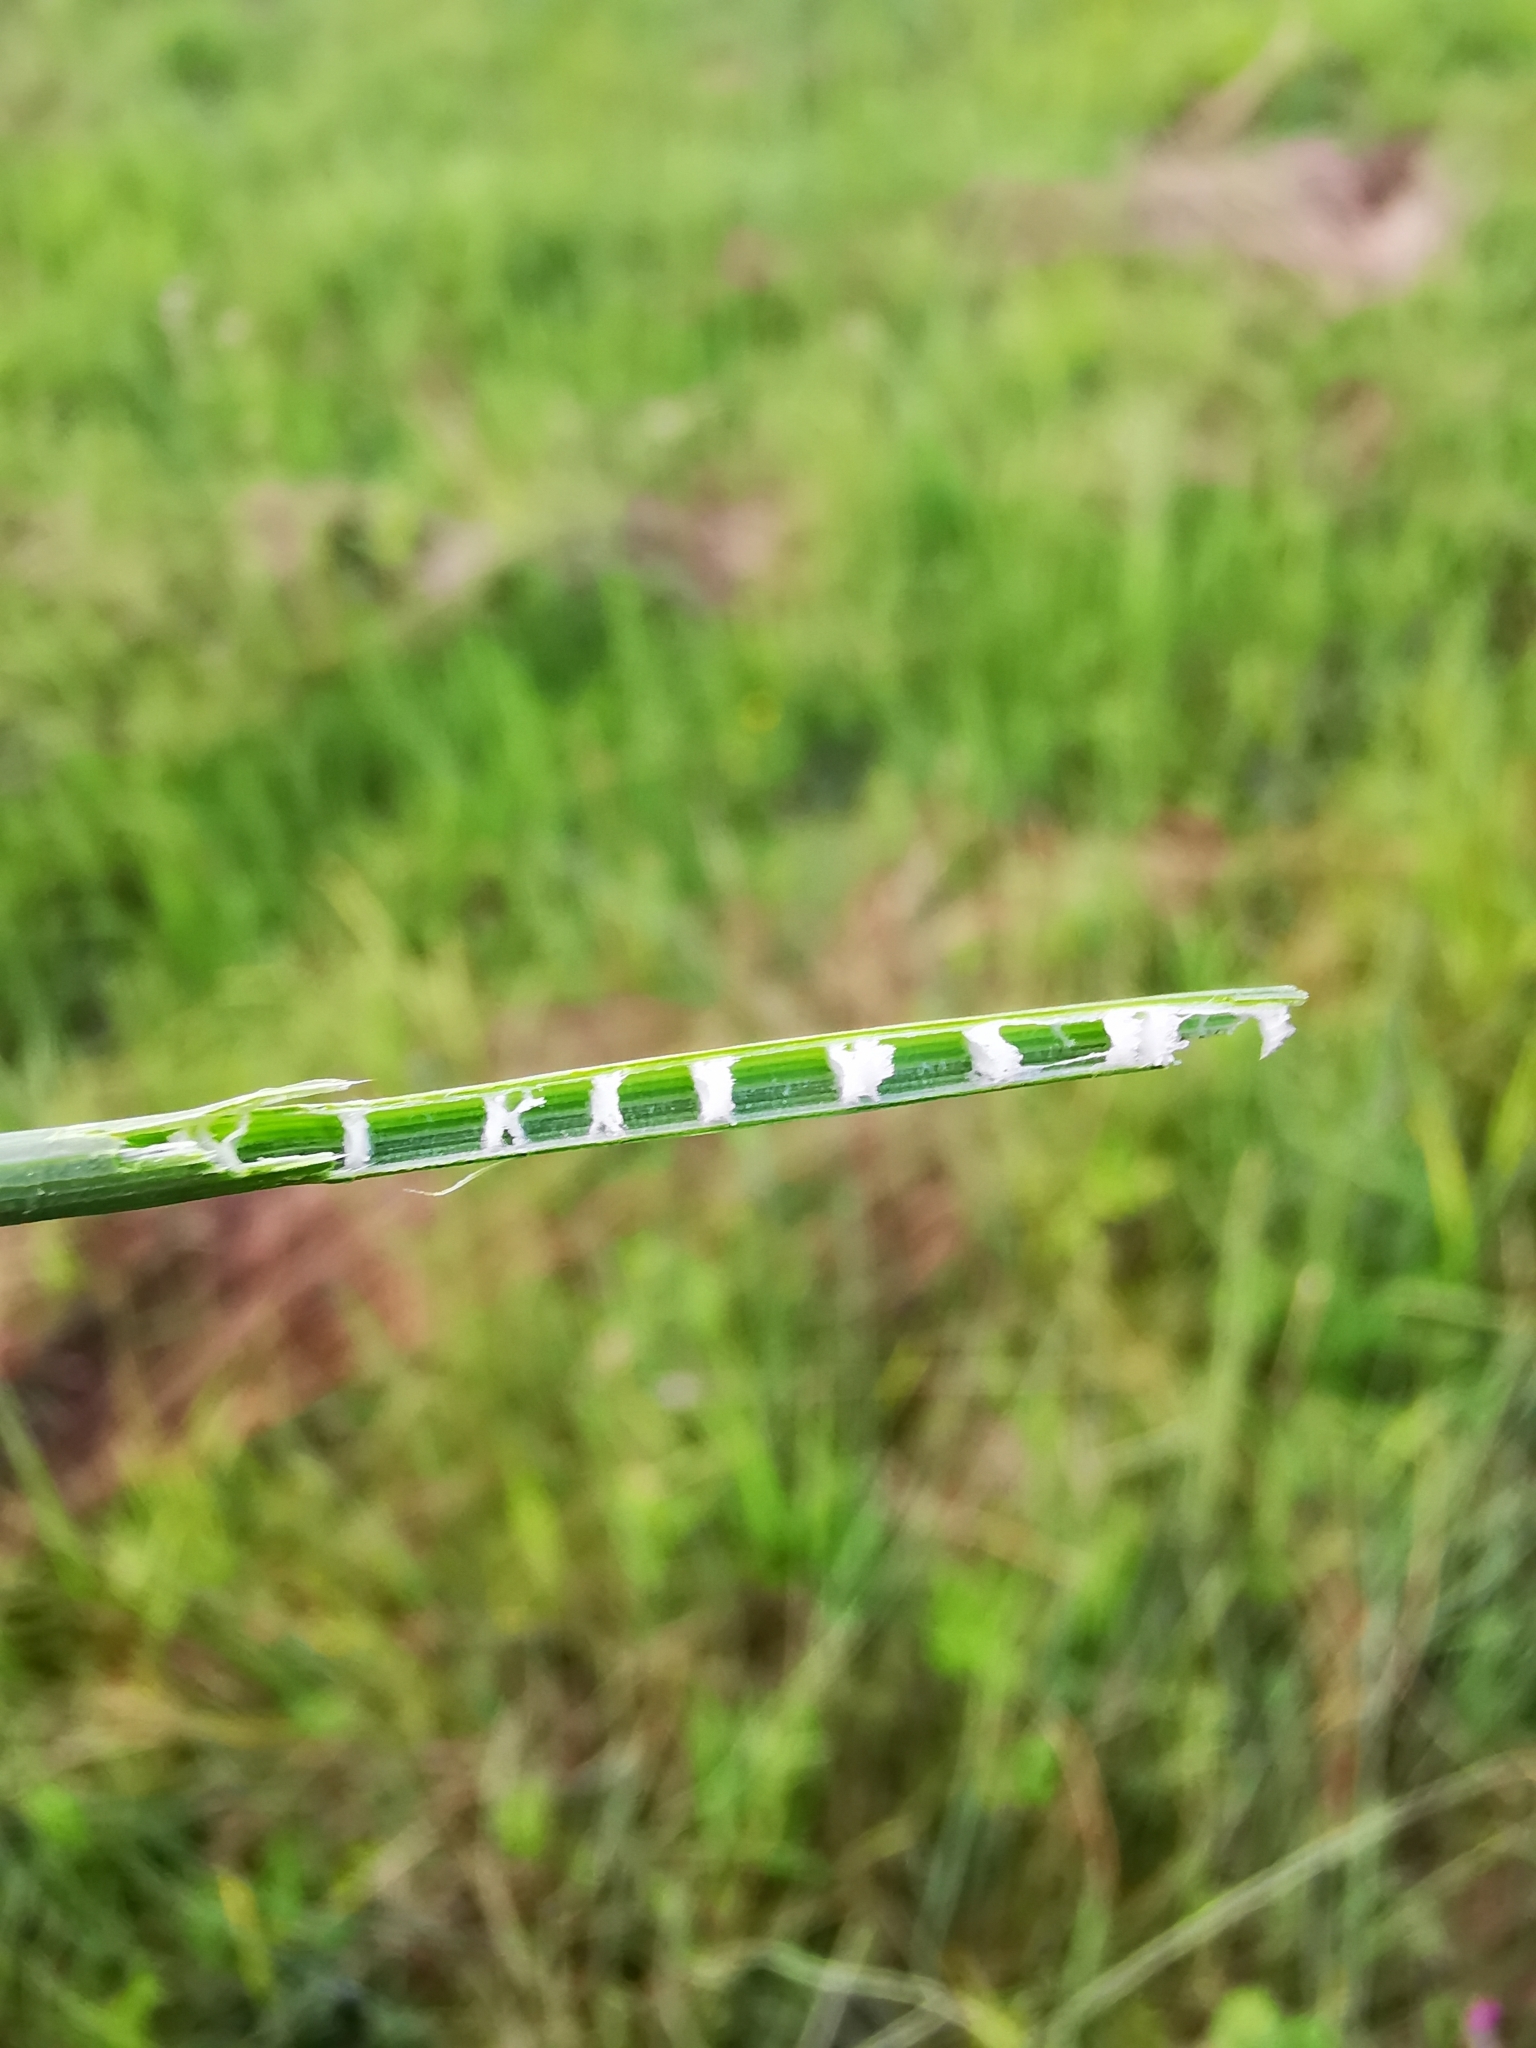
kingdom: Plantae
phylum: Tracheophyta
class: Liliopsida
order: Poales
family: Juncaceae
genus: Juncus
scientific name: Juncus inflexus
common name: Hard rush
